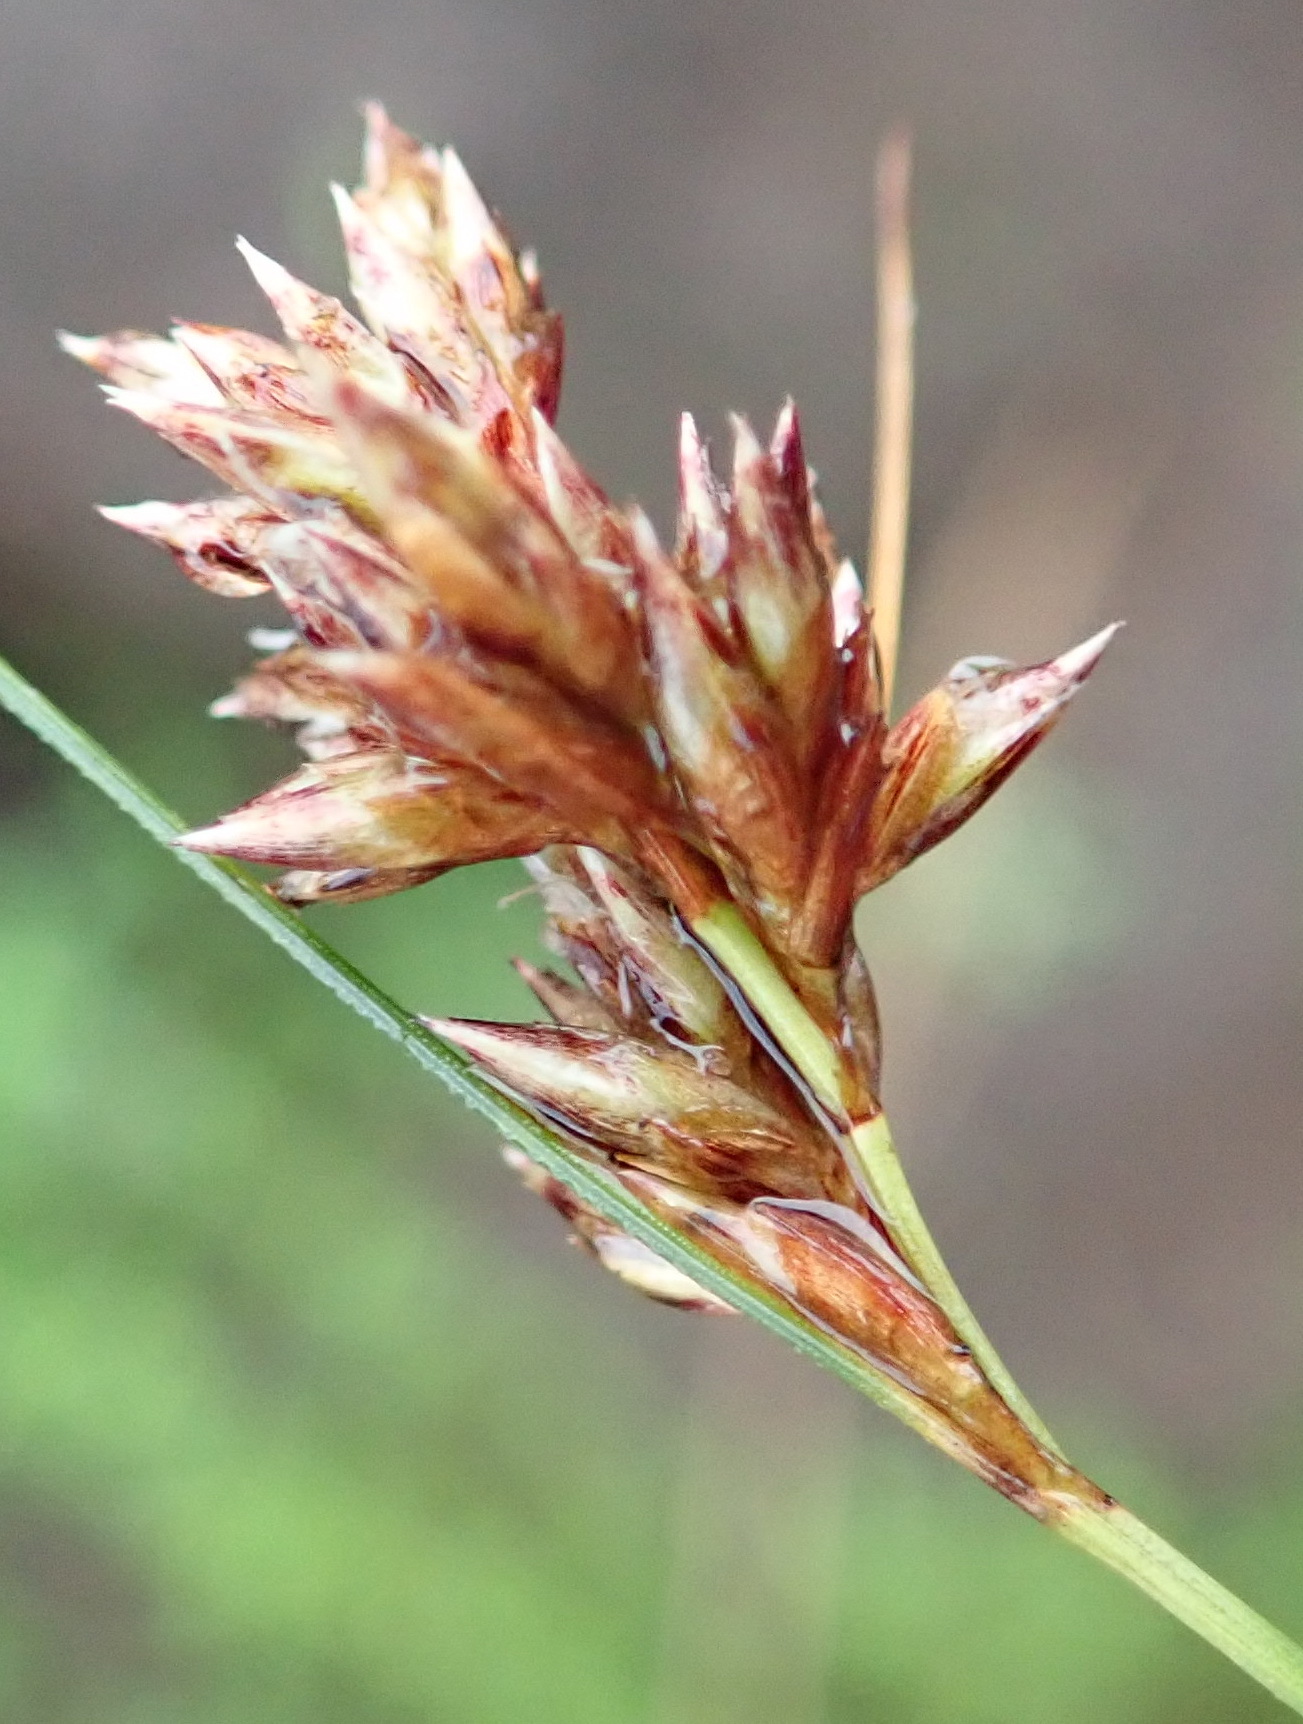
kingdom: Plantae
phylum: Tracheophyta
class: Liliopsida
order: Poales
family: Cyperaceae
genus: Ficinia
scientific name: Ficinia fascicularis
